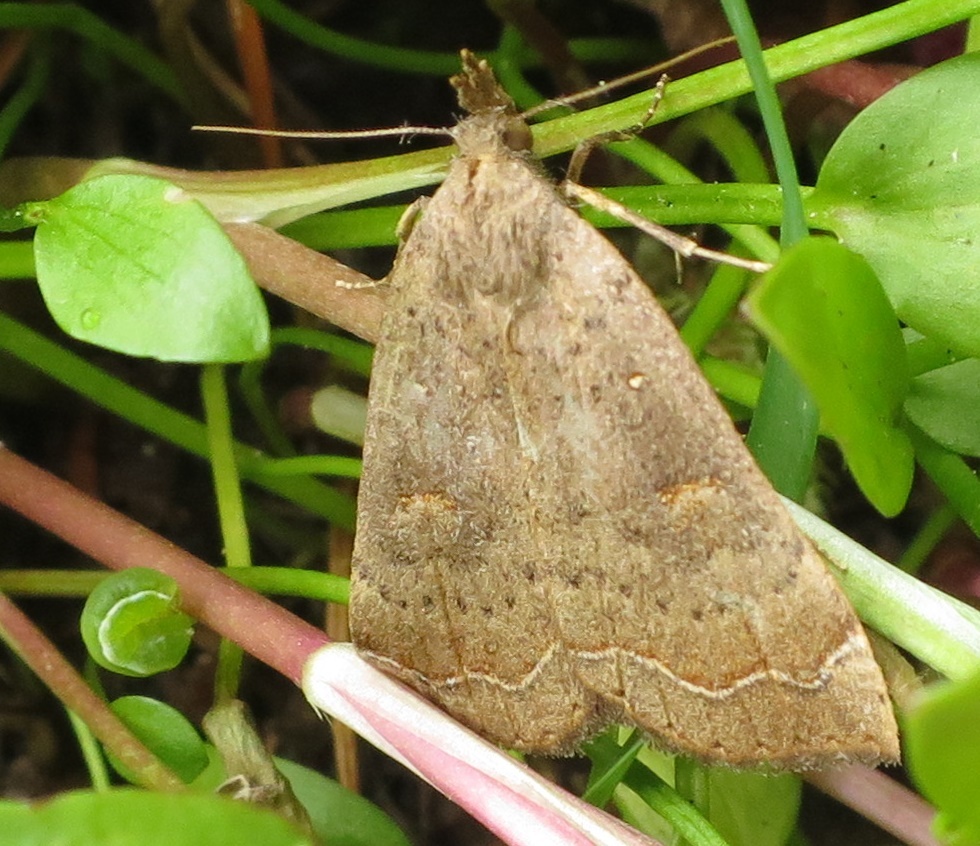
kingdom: Animalia
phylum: Arthropoda
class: Insecta
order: Lepidoptera
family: Erebidae
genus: Rhapsa
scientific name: Rhapsa scotosialis
